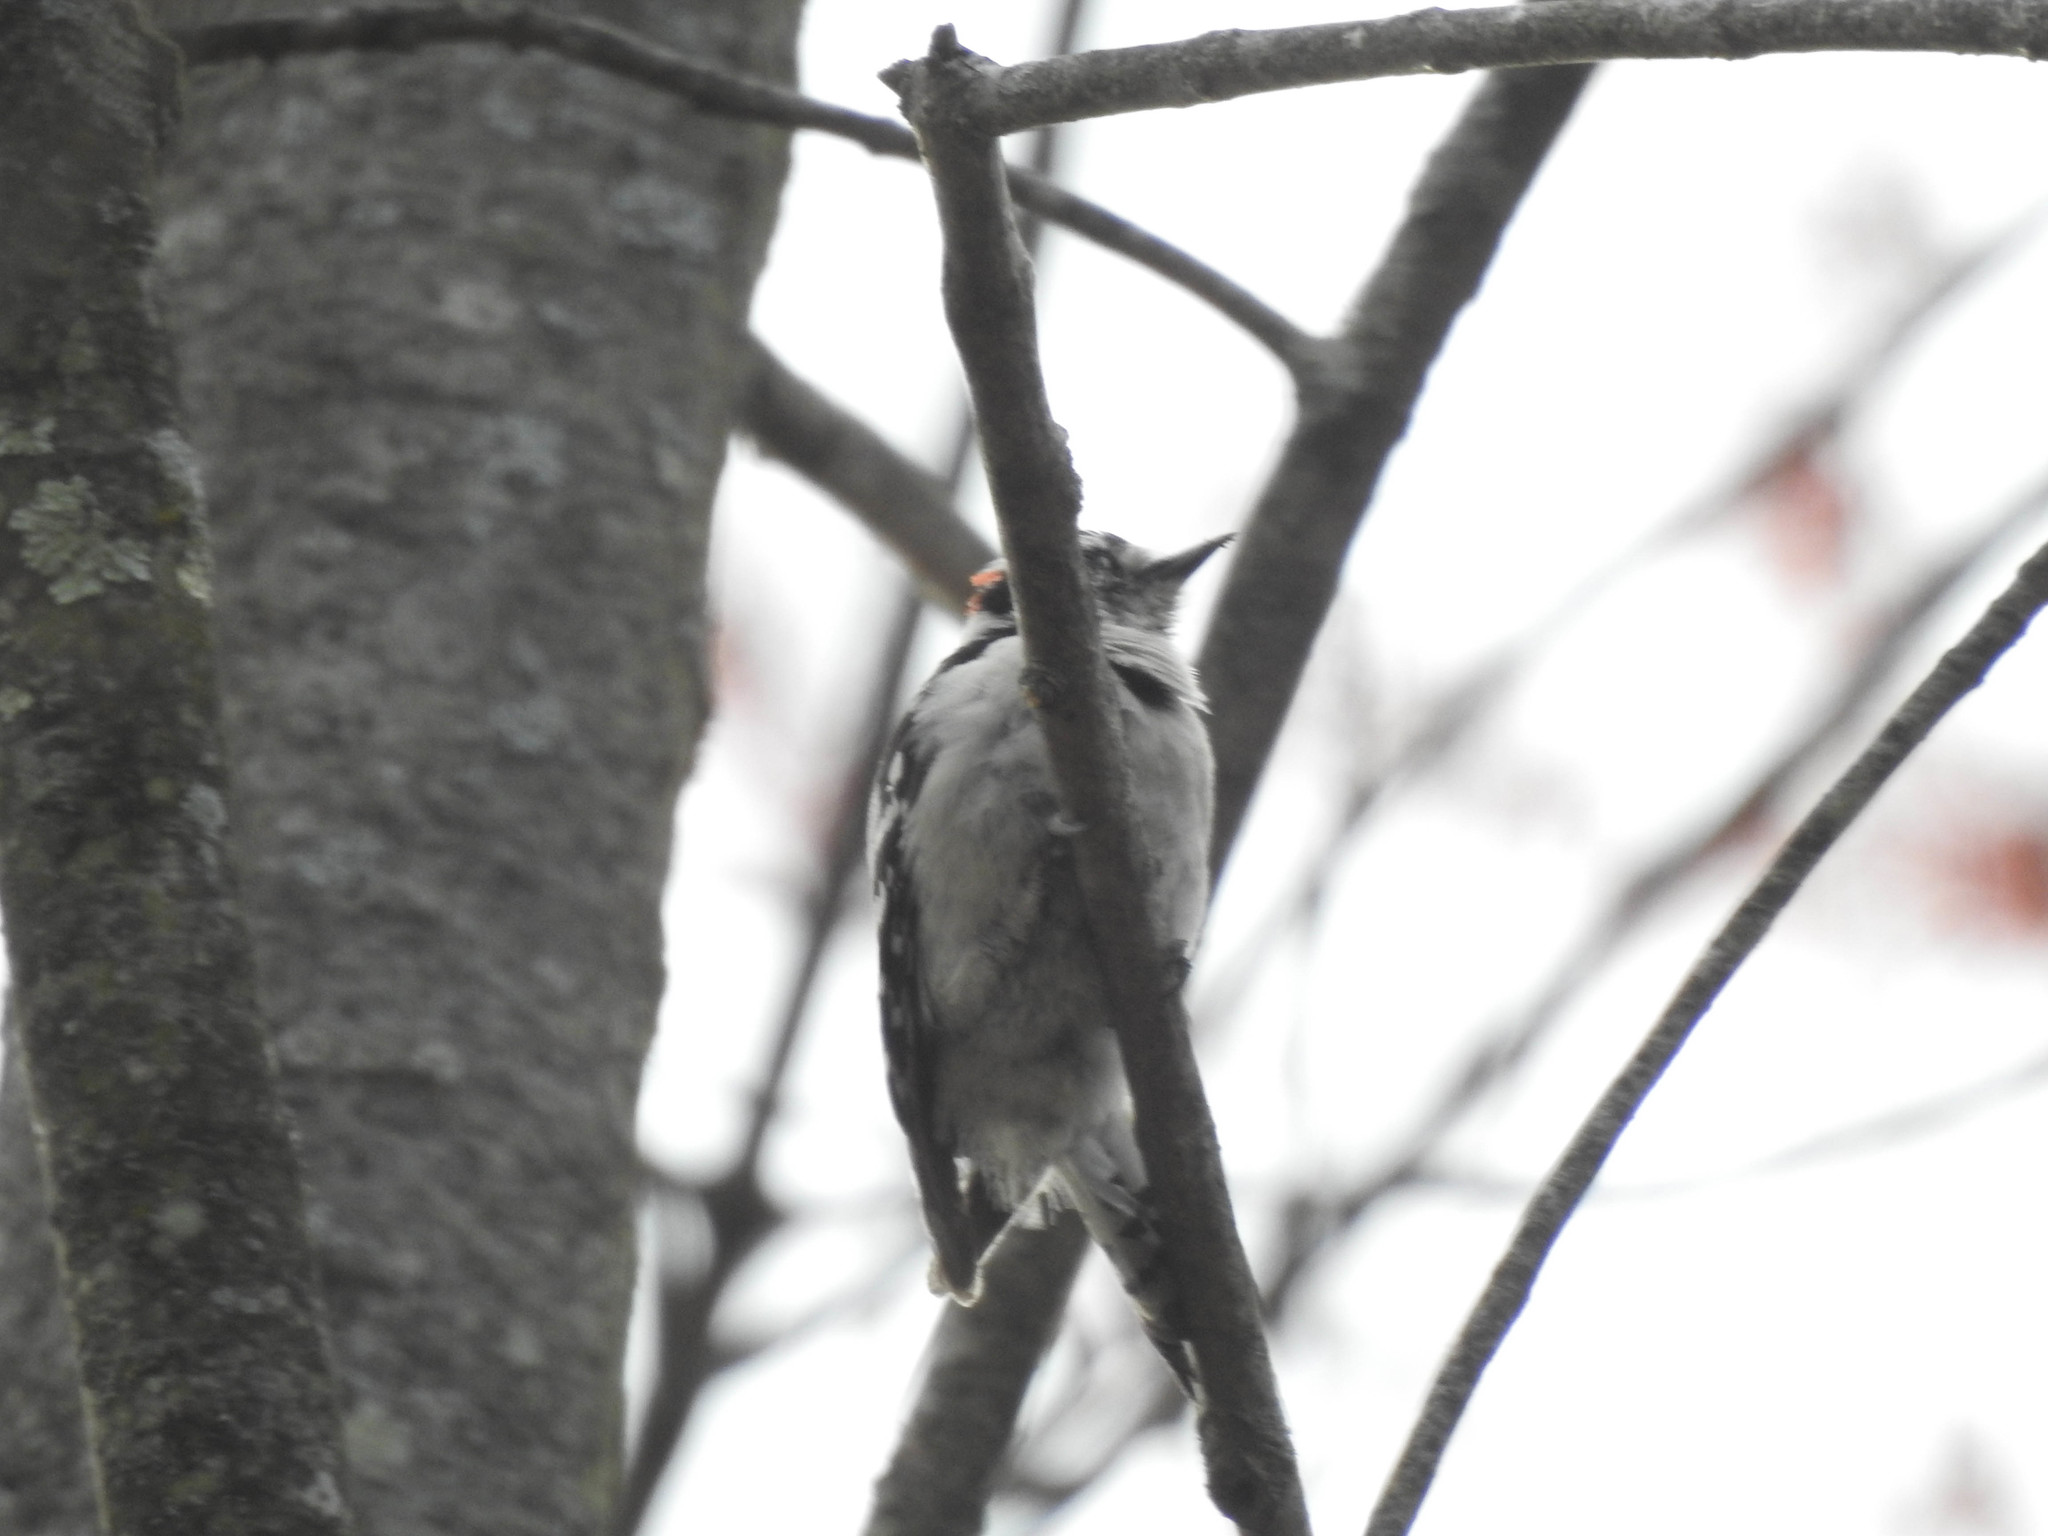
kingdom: Animalia
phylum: Chordata
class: Aves
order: Piciformes
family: Picidae
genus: Dryobates
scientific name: Dryobates pubescens
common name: Downy woodpecker
